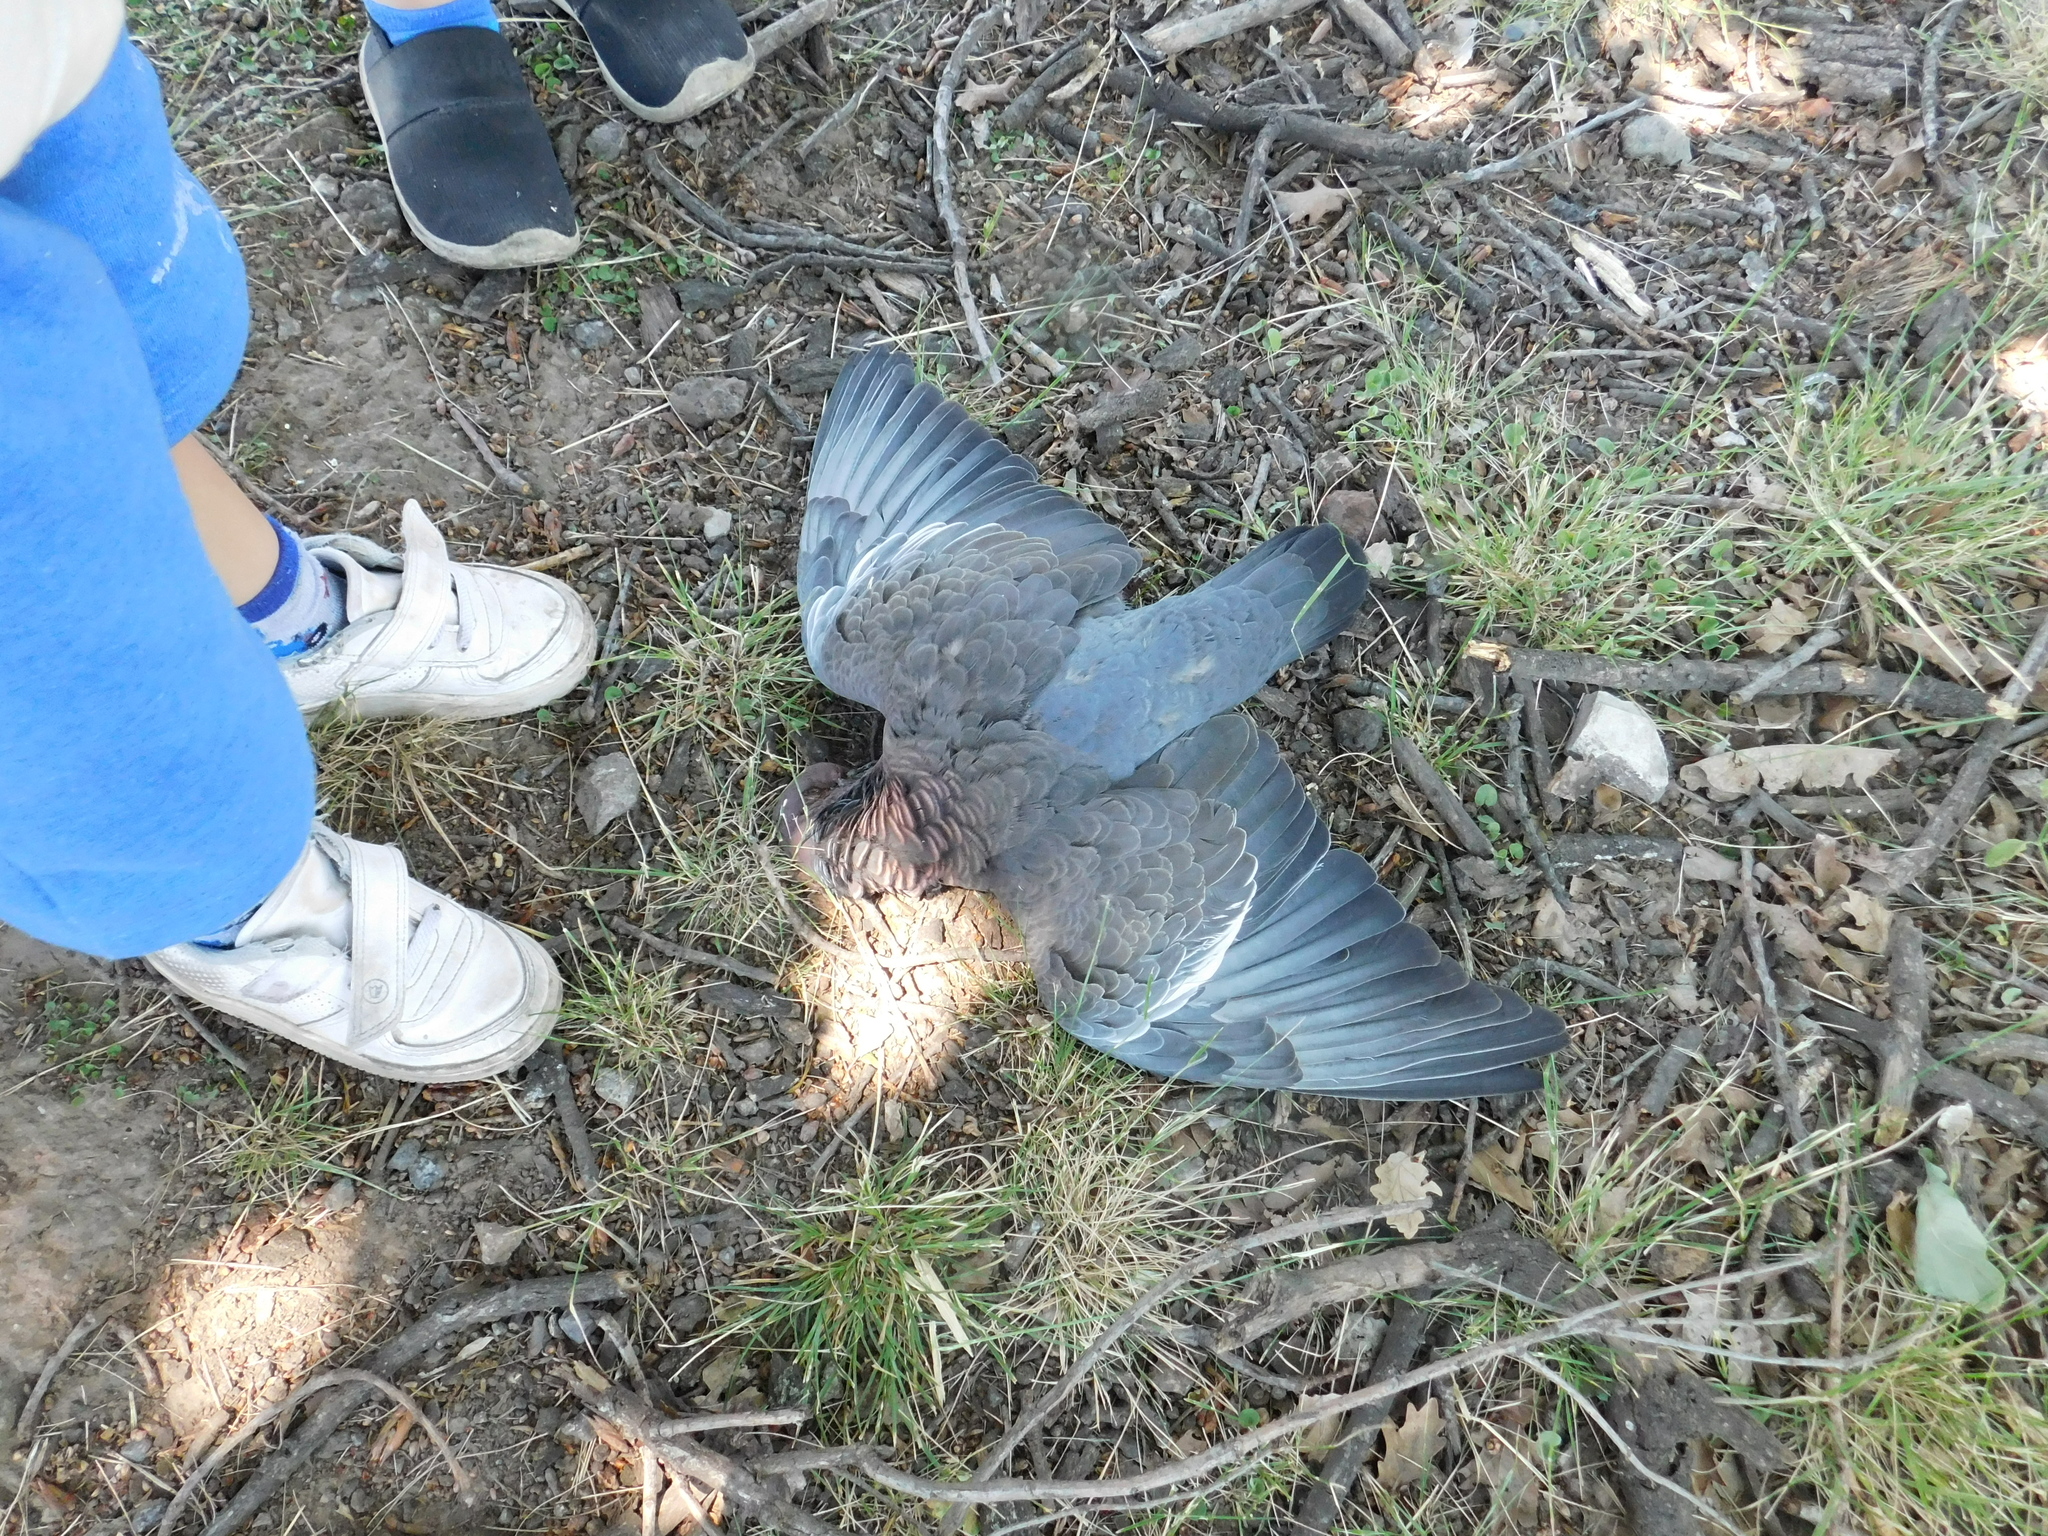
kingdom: Animalia
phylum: Chordata
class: Aves
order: Columbiformes
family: Columbidae
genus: Patagioenas
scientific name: Patagioenas picazuro
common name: Picazuro pigeon
